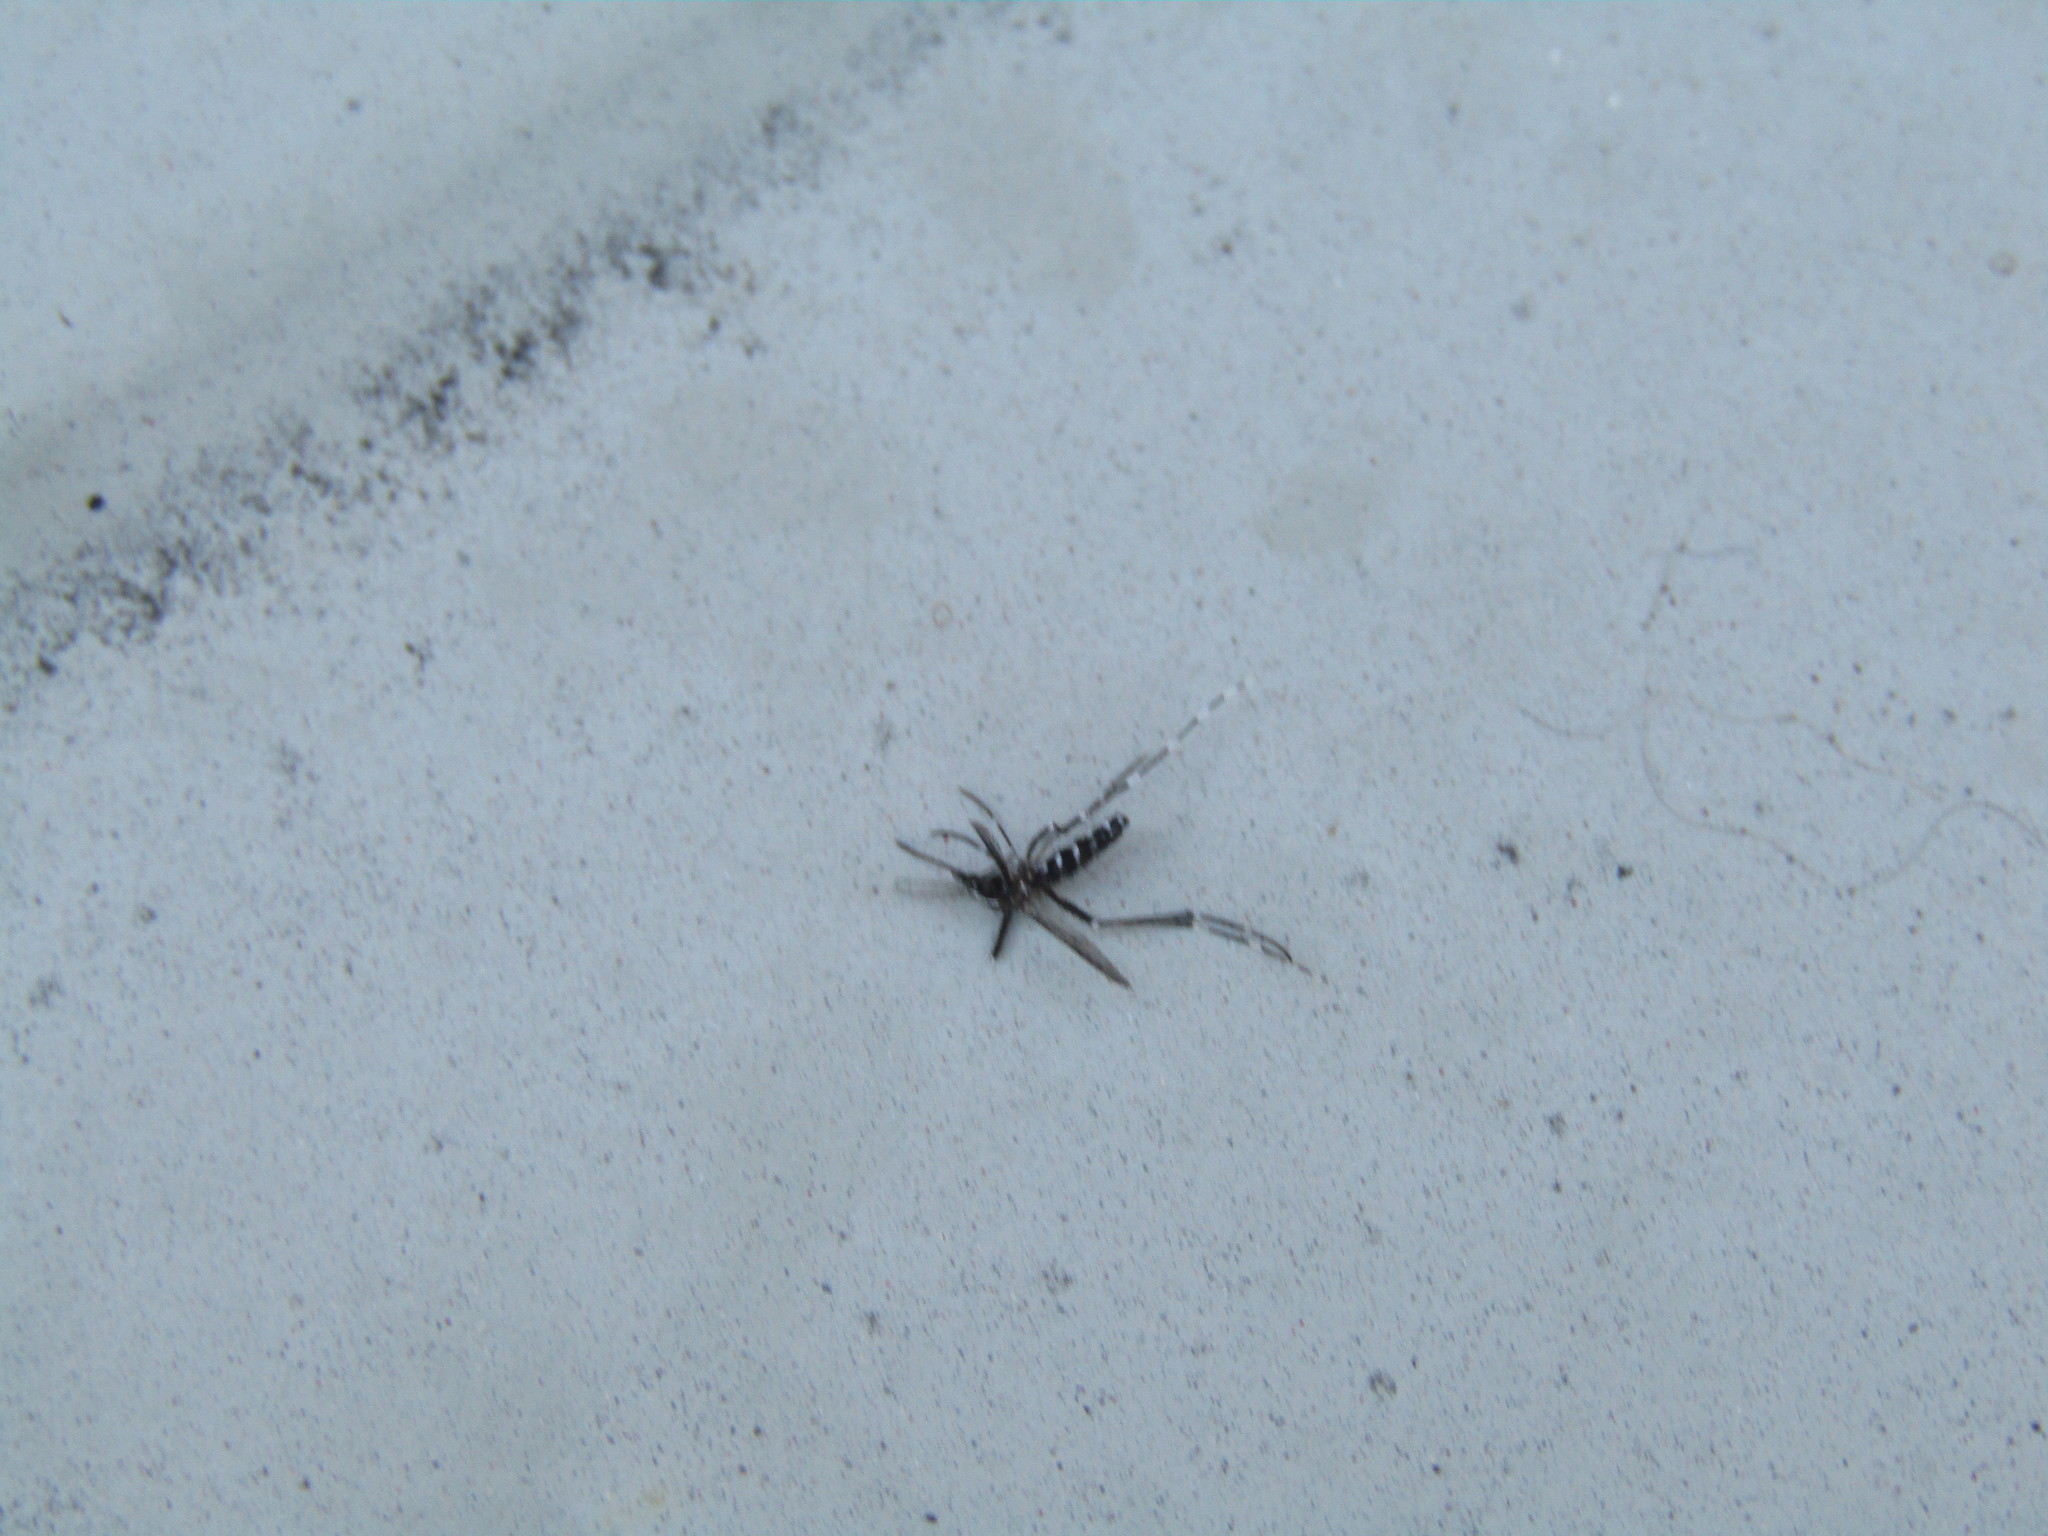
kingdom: Animalia
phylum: Arthropoda
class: Insecta
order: Diptera
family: Culicidae
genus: Aedes
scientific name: Aedes albopictus
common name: Tiger mosquito
